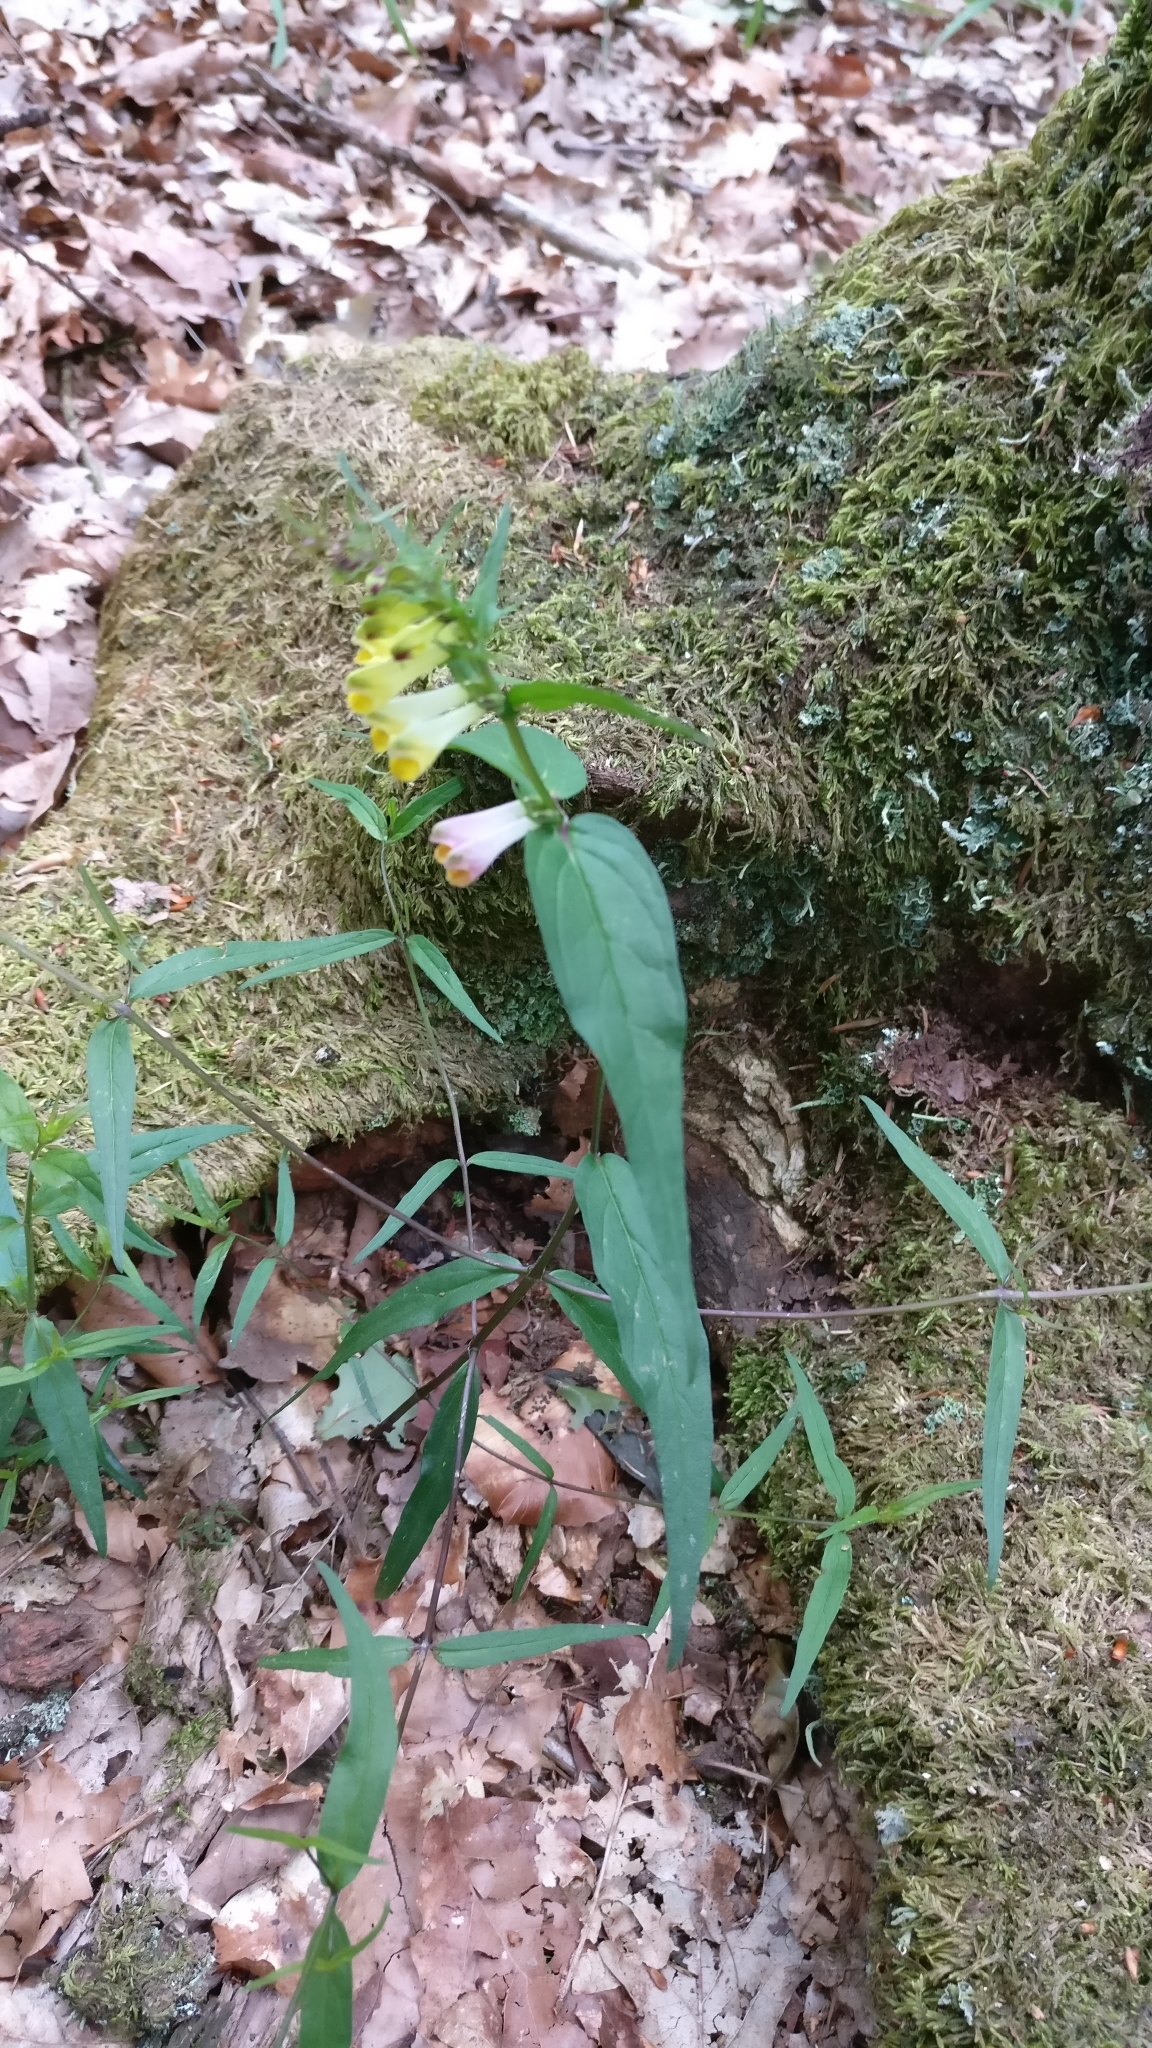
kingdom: Plantae
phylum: Tracheophyta
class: Magnoliopsida
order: Lamiales
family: Orobanchaceae
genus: Melampyrum
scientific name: Melampyrum pratense
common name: Common cow-wheat
